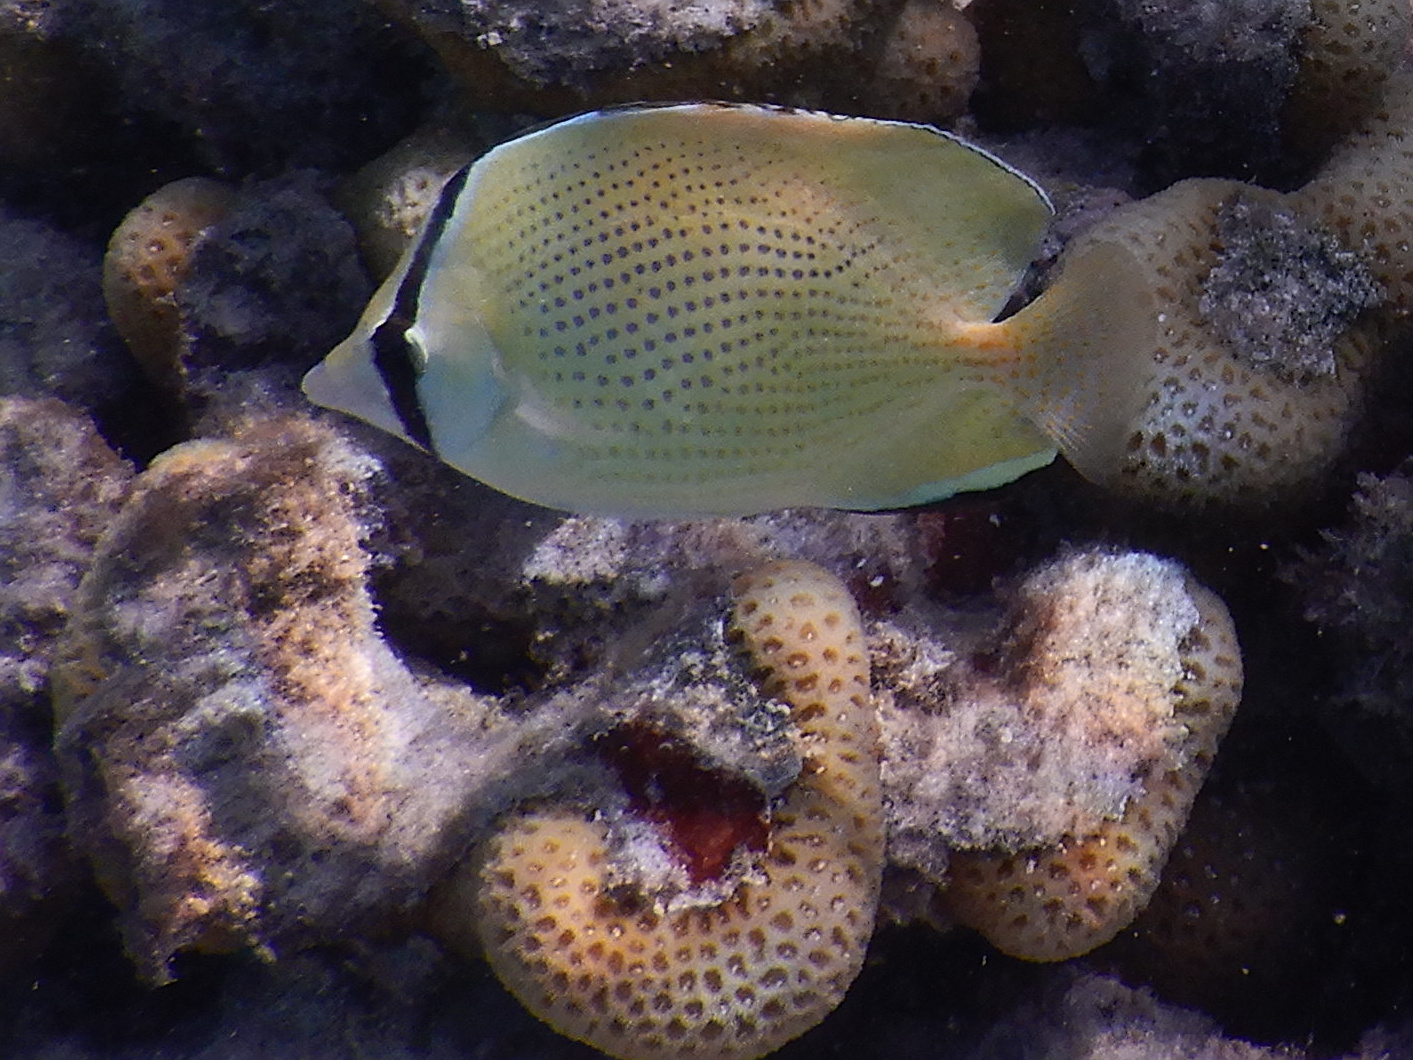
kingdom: Animalia
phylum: Chordata
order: Perciformes
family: Chaetodontidae
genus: Chaetodon
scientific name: Chaetodon citrinellus
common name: Speckled butterflyfish
